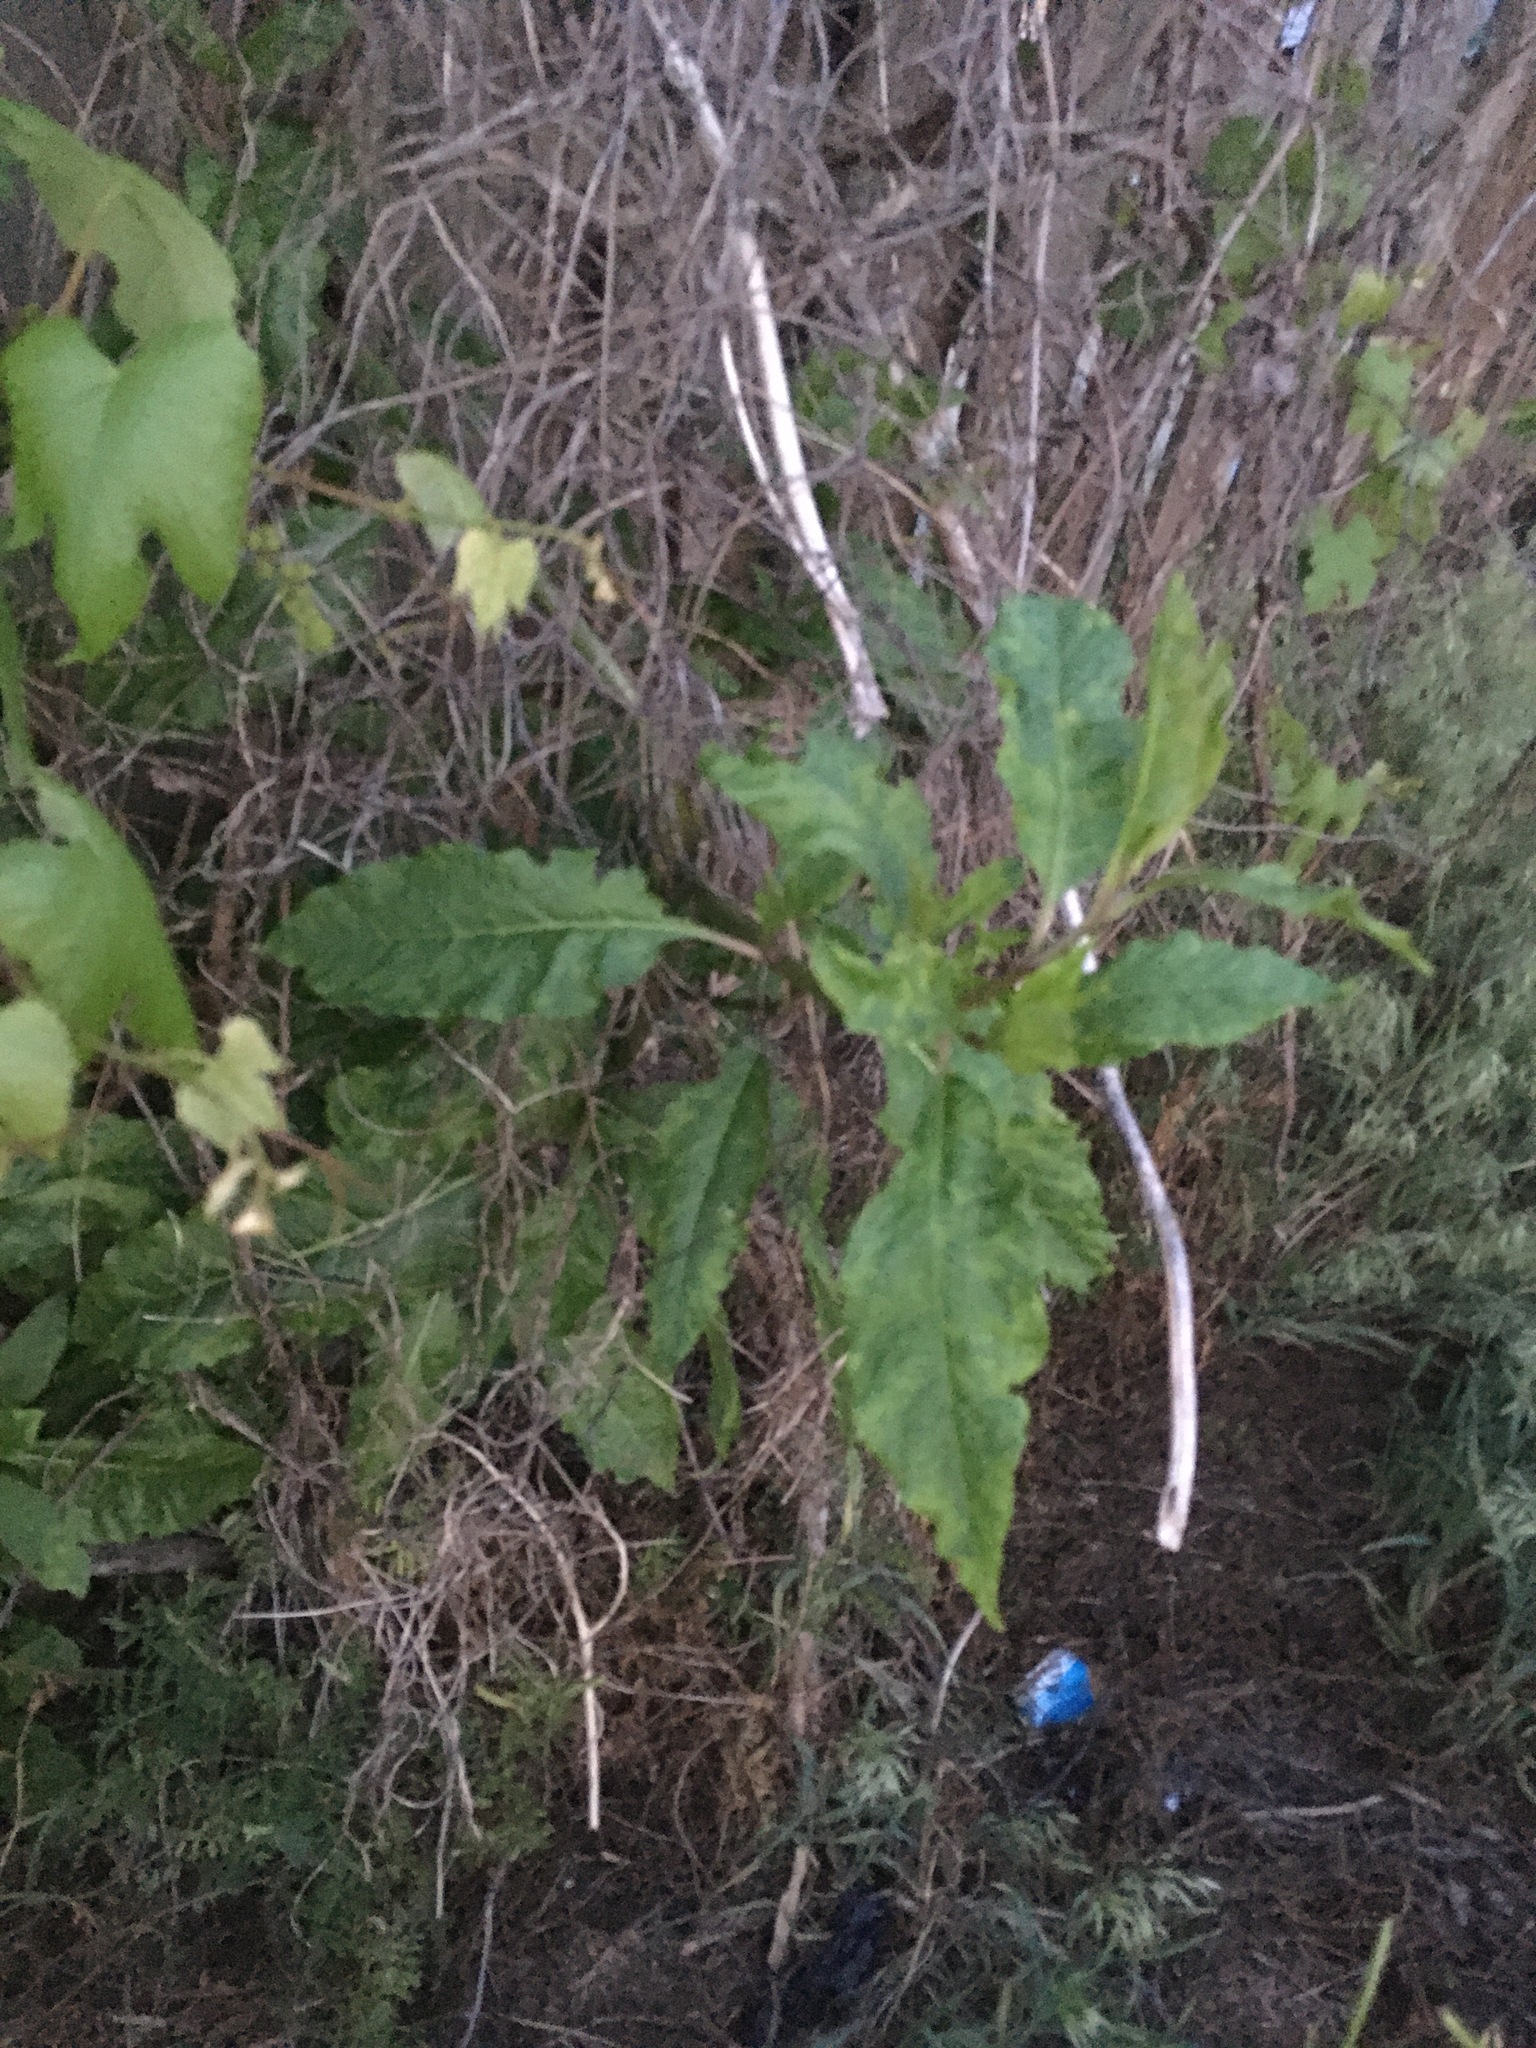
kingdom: Plantae
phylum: Tracheophyta
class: Magnoliopsida
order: Caryophyllales
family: Phytolaccaceae
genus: Phytolacca
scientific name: Phytolacca americana
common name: American pokeweed
